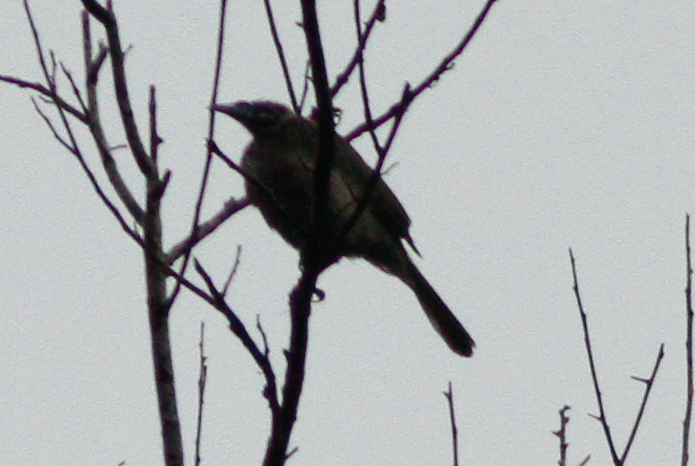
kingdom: Animalia
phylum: Chordata
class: Aves
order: Passeriformes
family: Meliphagidae
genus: Philemon
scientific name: Philemon argenticeps
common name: Silver-crowned friarbird
